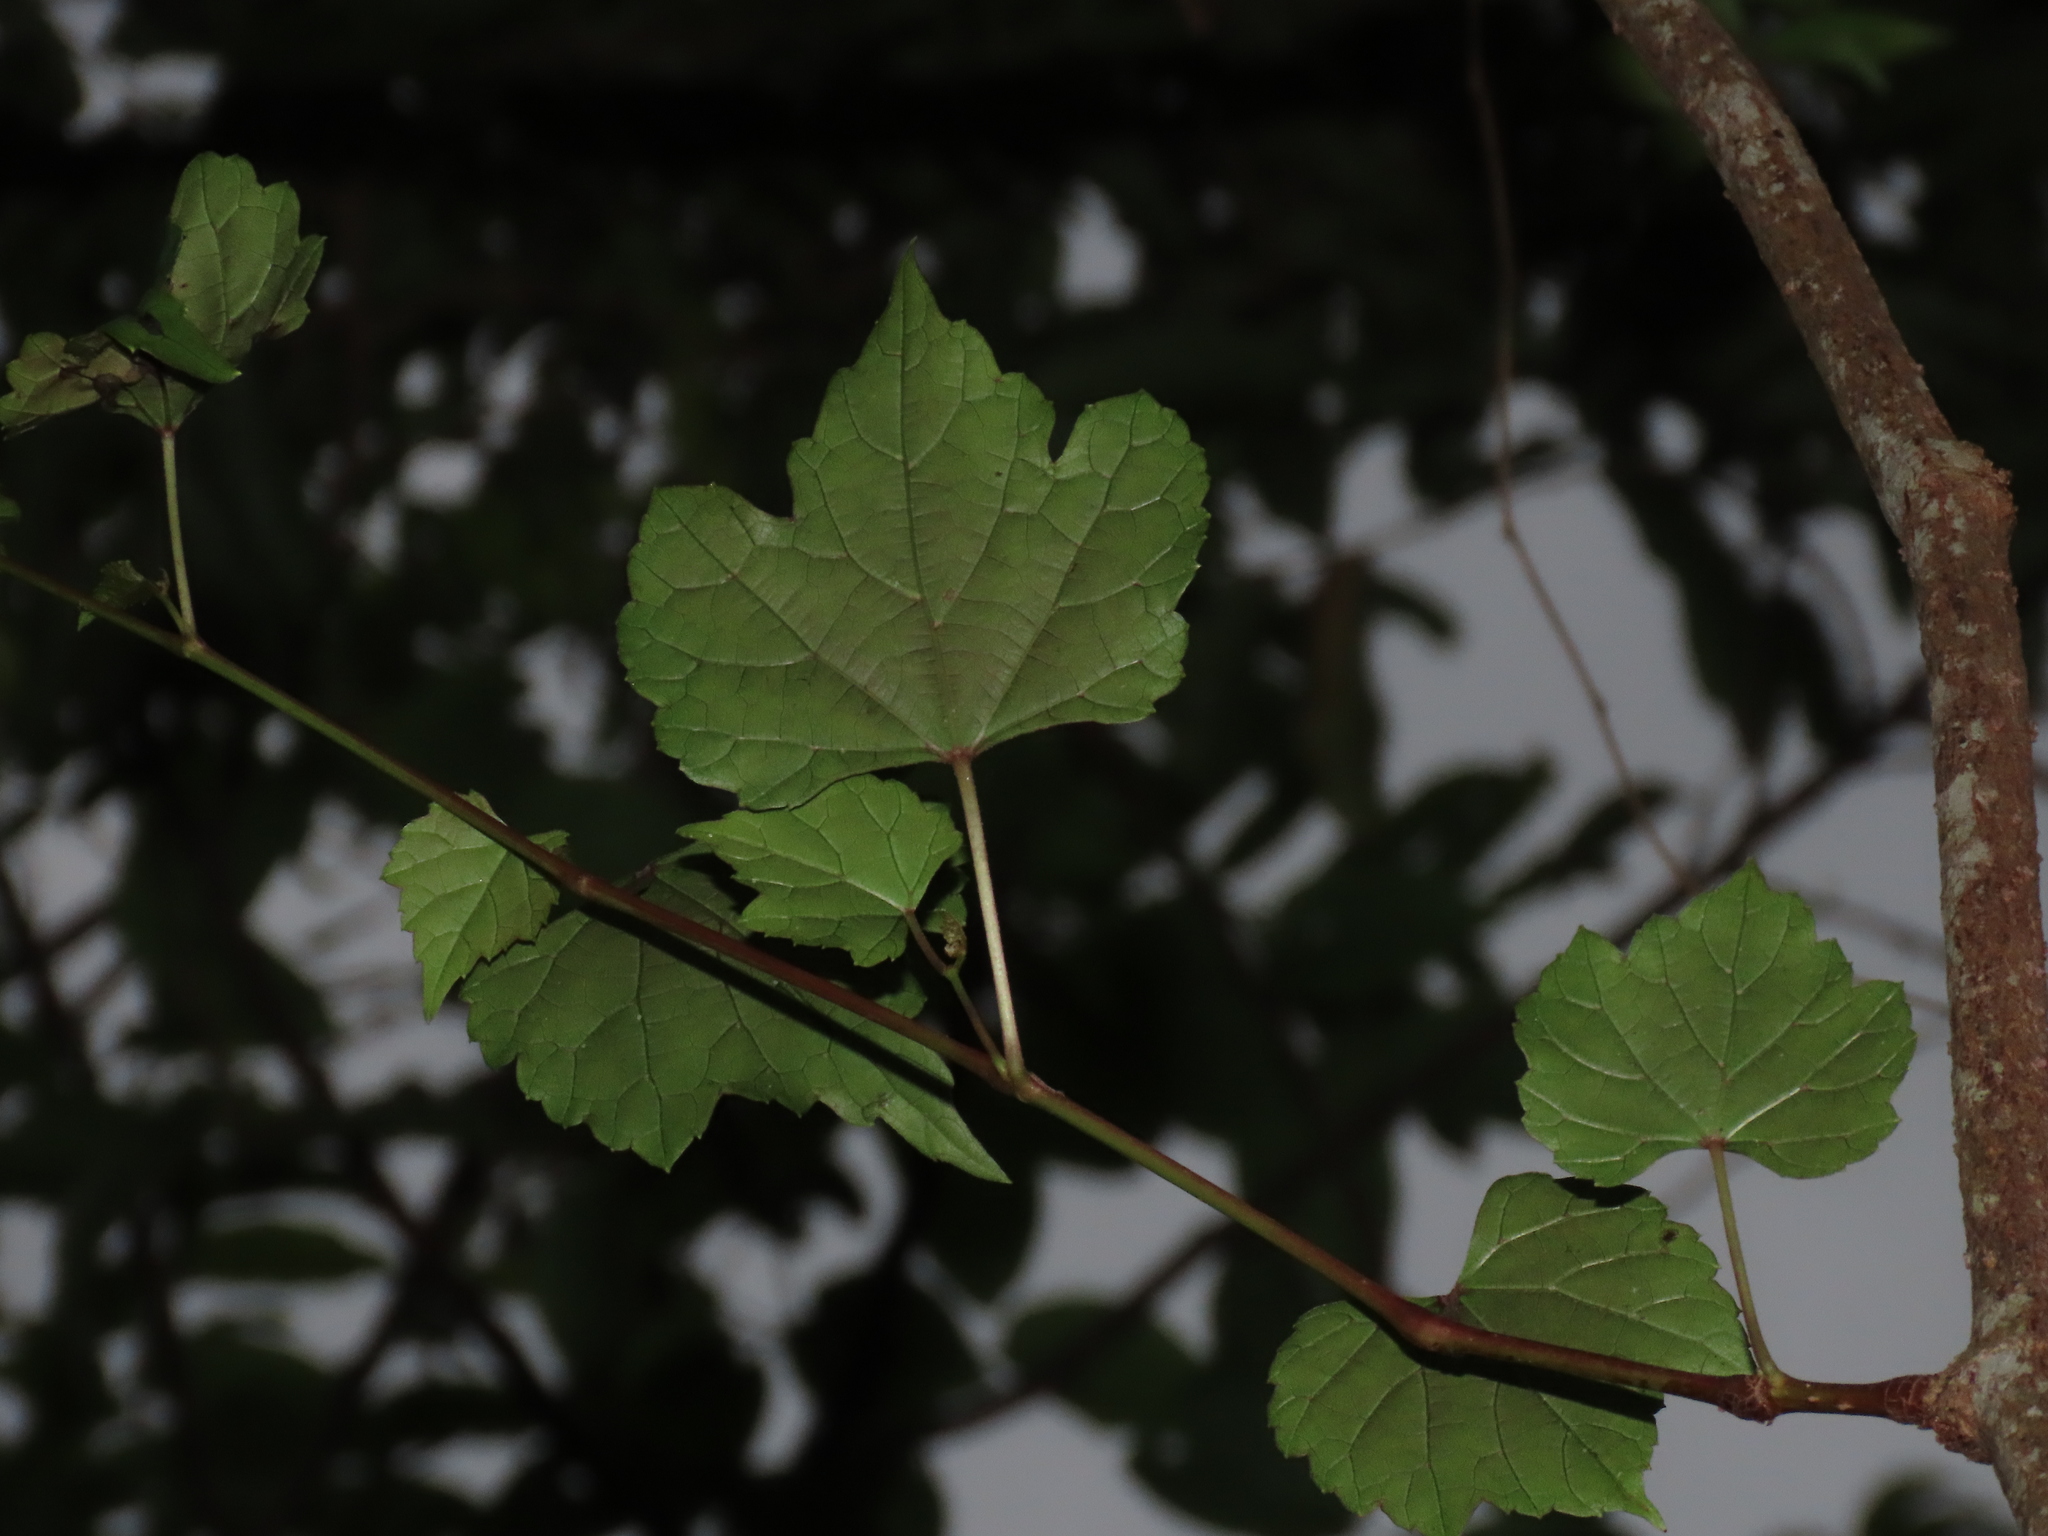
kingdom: Plantae
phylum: Tracheophyta
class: Magnoliopsida
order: Vitales
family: Vitaceae
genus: Ampelopsis
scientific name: Ampelopsis glandulosa
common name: Amur peppervine
